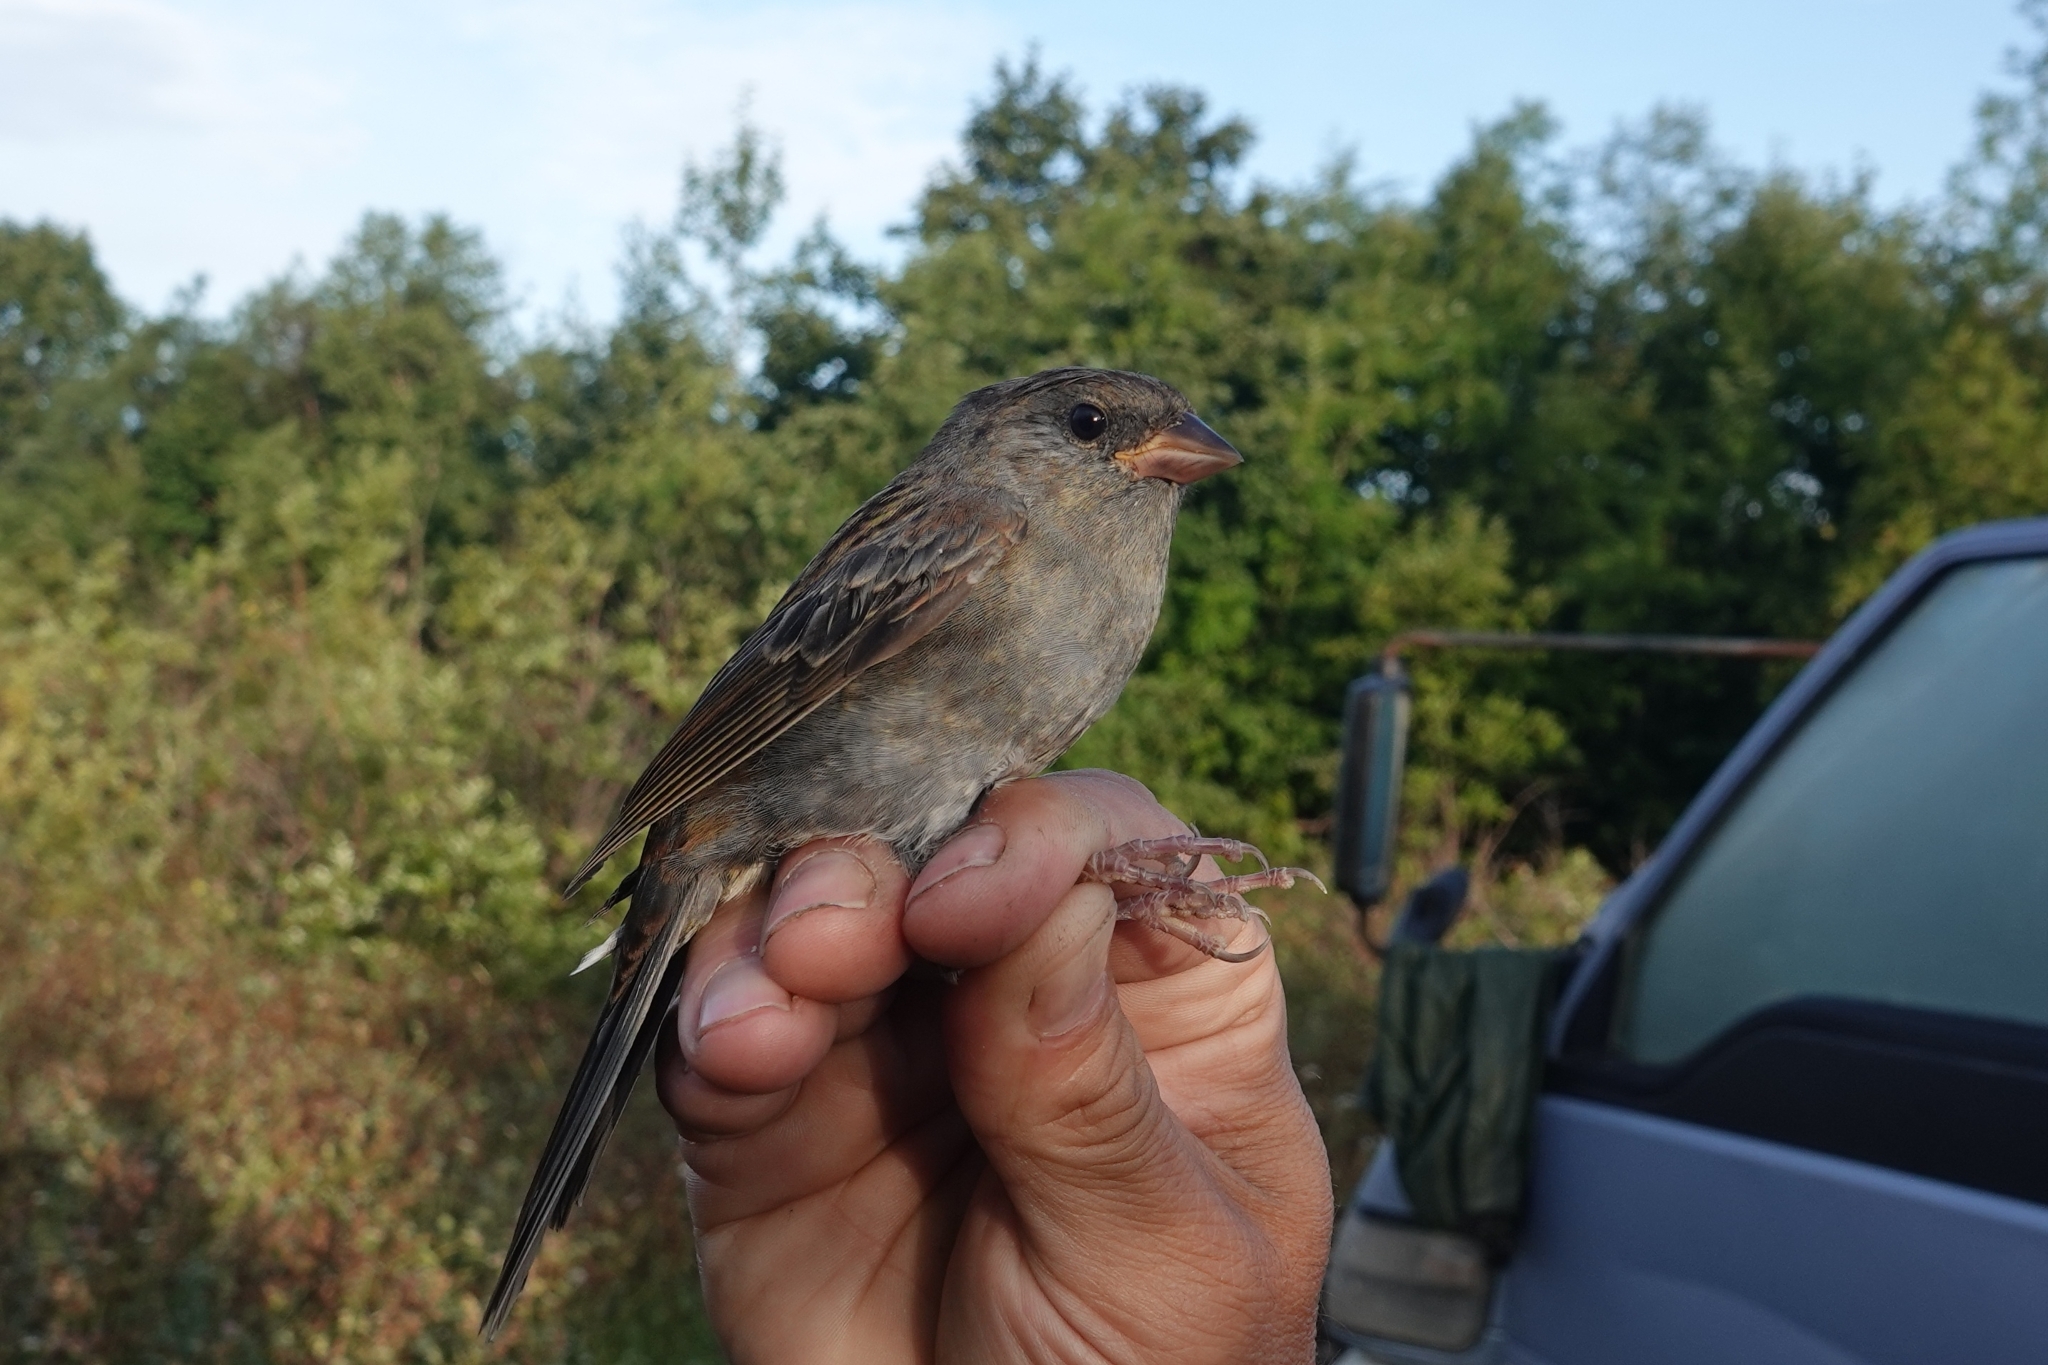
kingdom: Animalia
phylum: Chordata
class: Aves
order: Passeriformes
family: Emberizidae
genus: Emberiza
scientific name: Emberiza variabilis
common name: Gray bunting
